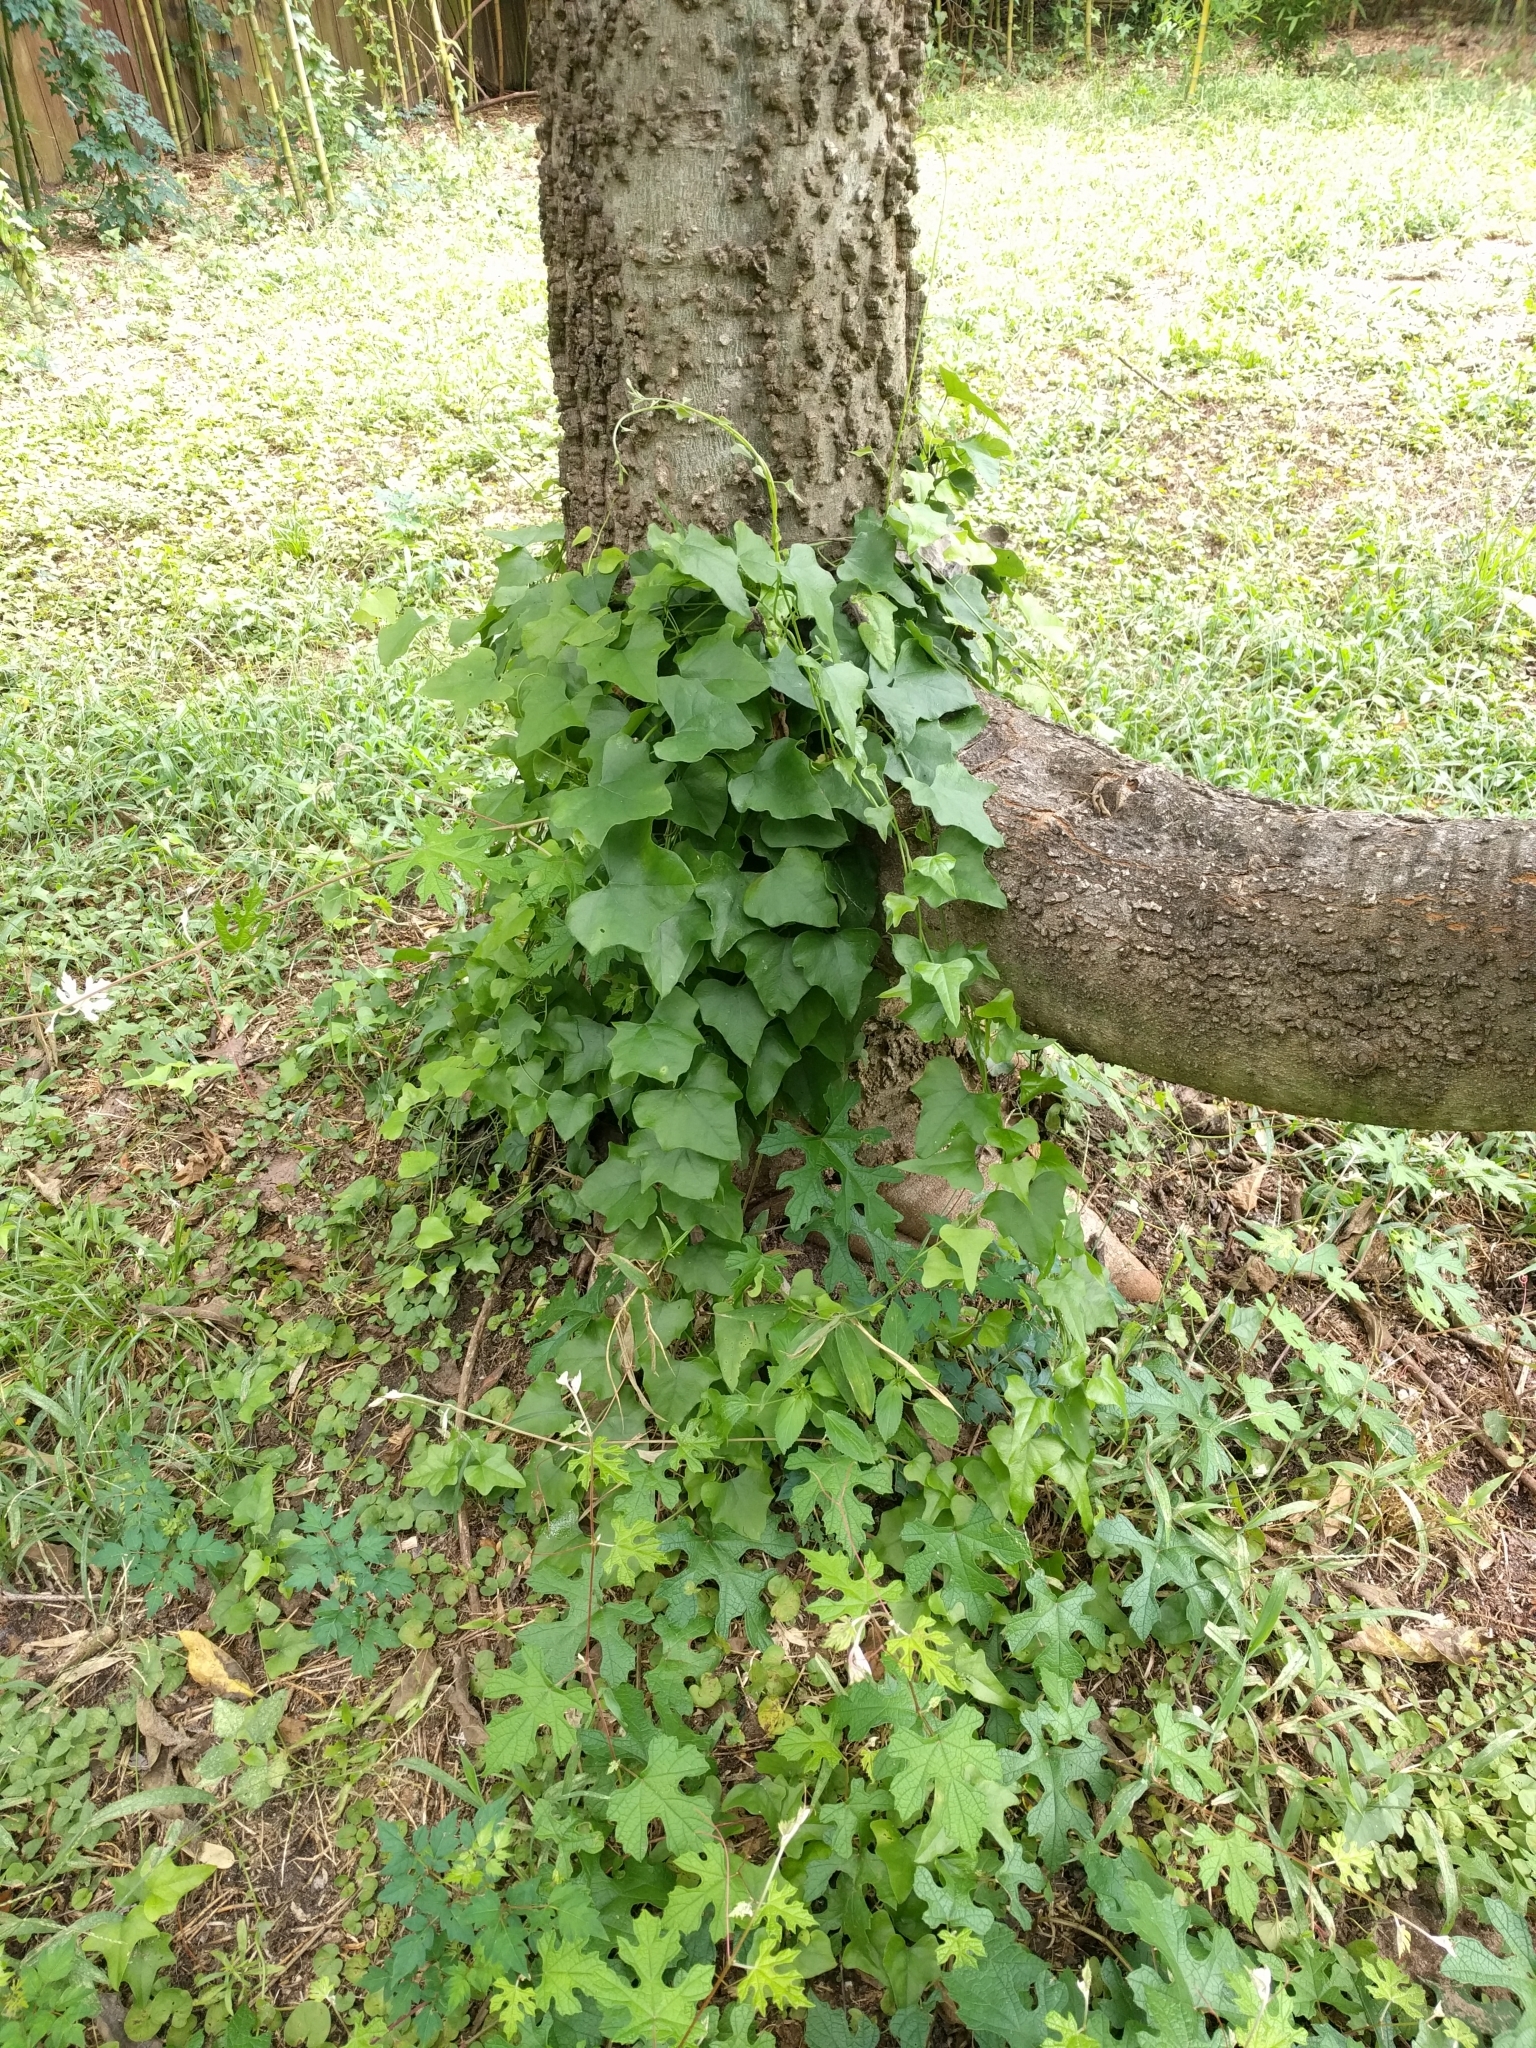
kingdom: Plantae
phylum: Tracheophyta
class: Magnoliopsida
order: Ranunculales
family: Menispermaceae
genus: Cocculus
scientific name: Cocculus carolinus
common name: Carolina moonseed
